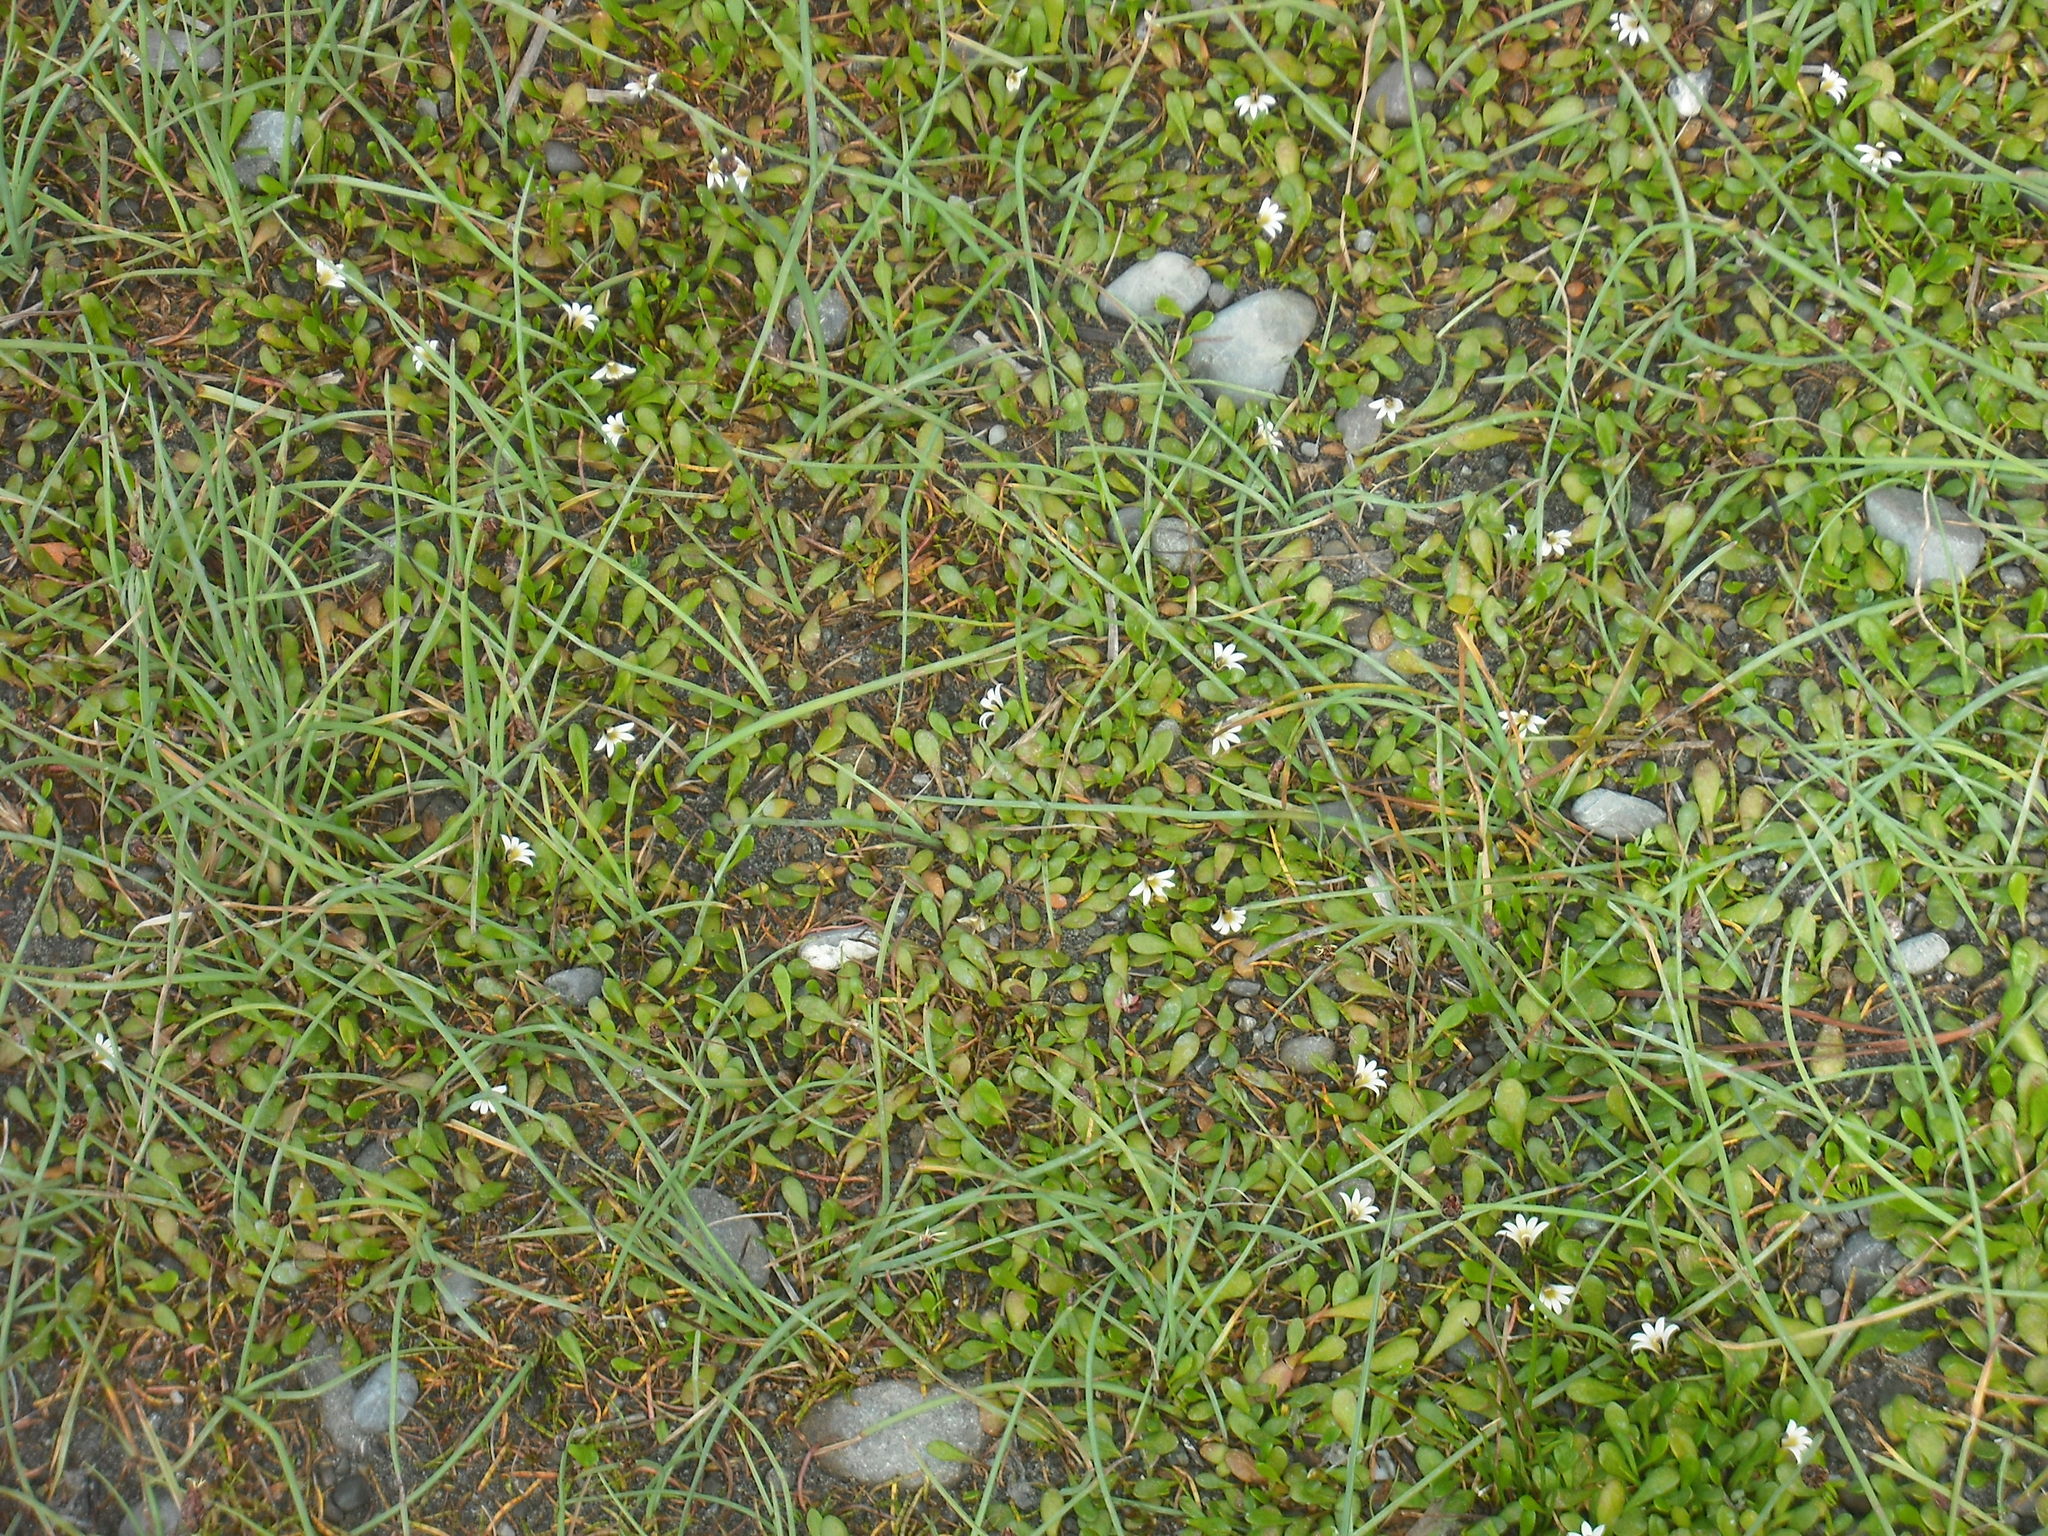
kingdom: Plantae
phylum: Tracheophyta
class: Magnoliopsida
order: Asterales
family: Goodeniaceae
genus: Goodenia
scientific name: Goodenia radicans
